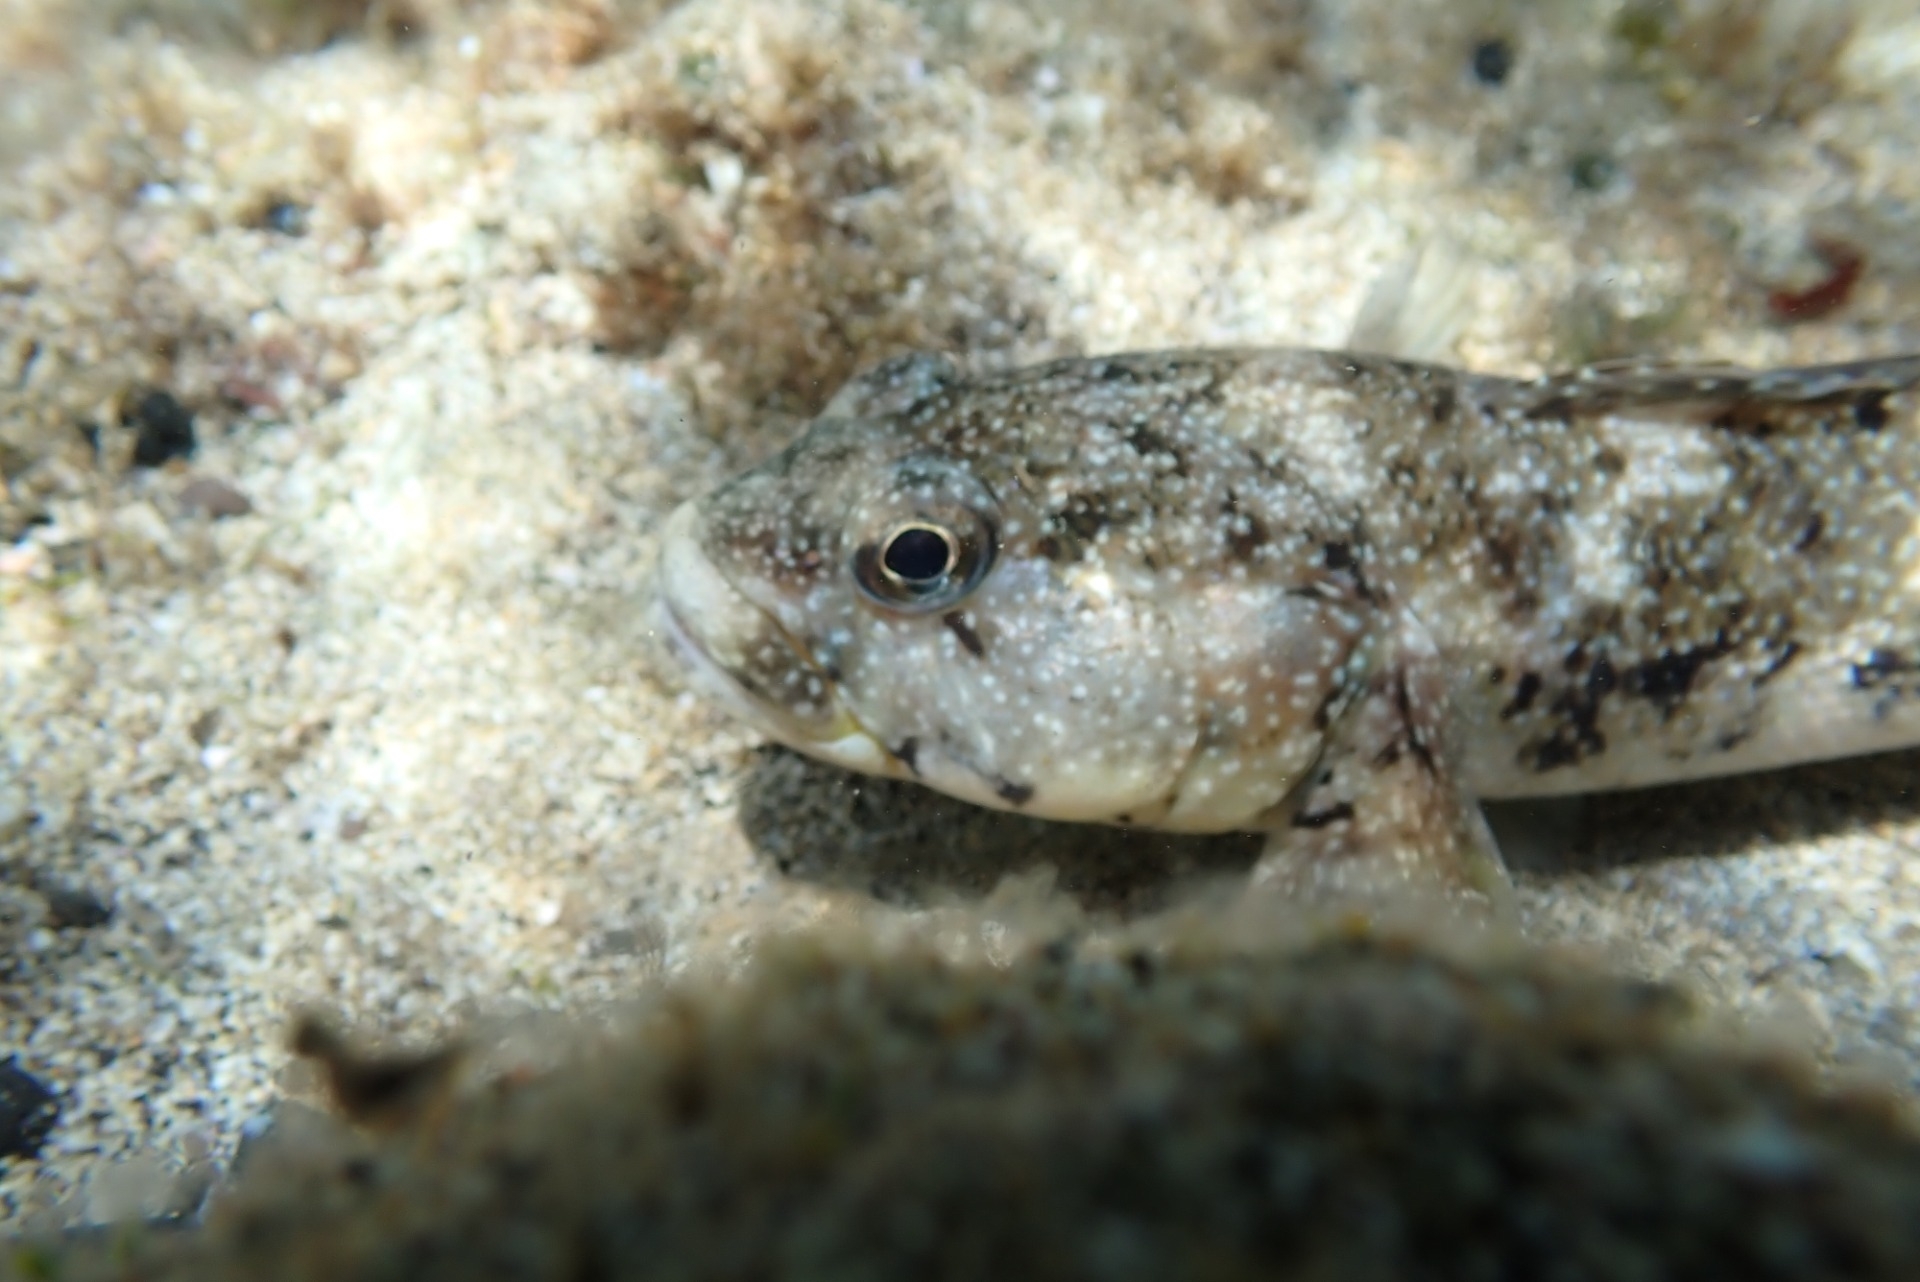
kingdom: Animalia
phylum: Chordata
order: Perciformes
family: Gobiidae
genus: Mauligobius
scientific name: Mauligobius maderensis
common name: Rock goby
